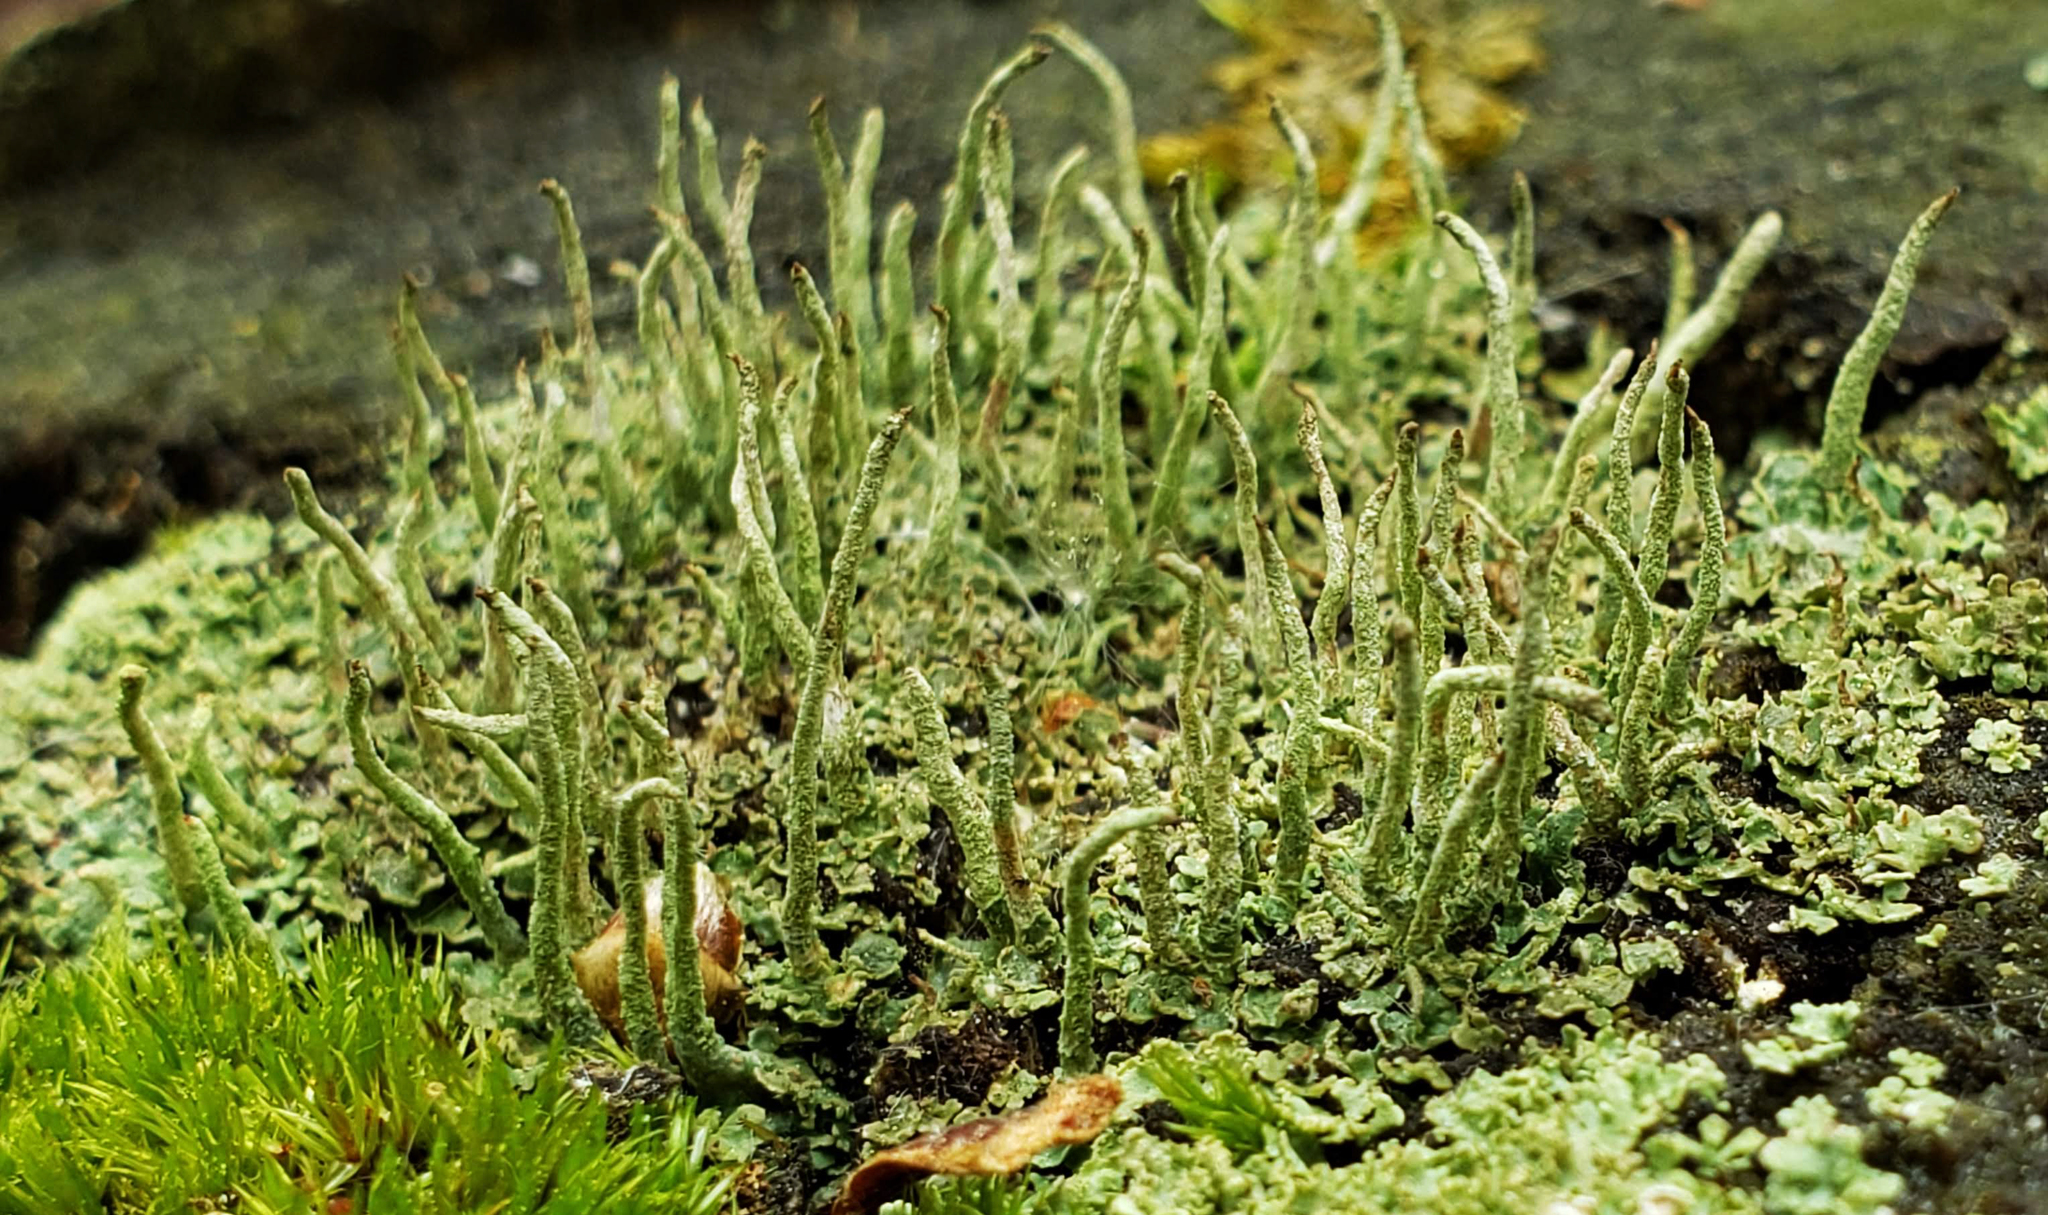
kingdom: Fungi
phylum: Ascomycota
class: Lecanoromycetes
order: Lecanorales
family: Cladoniaceae
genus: Cladonia
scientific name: Cladonia ochrochlora
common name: Smooth-footed powderhorn
